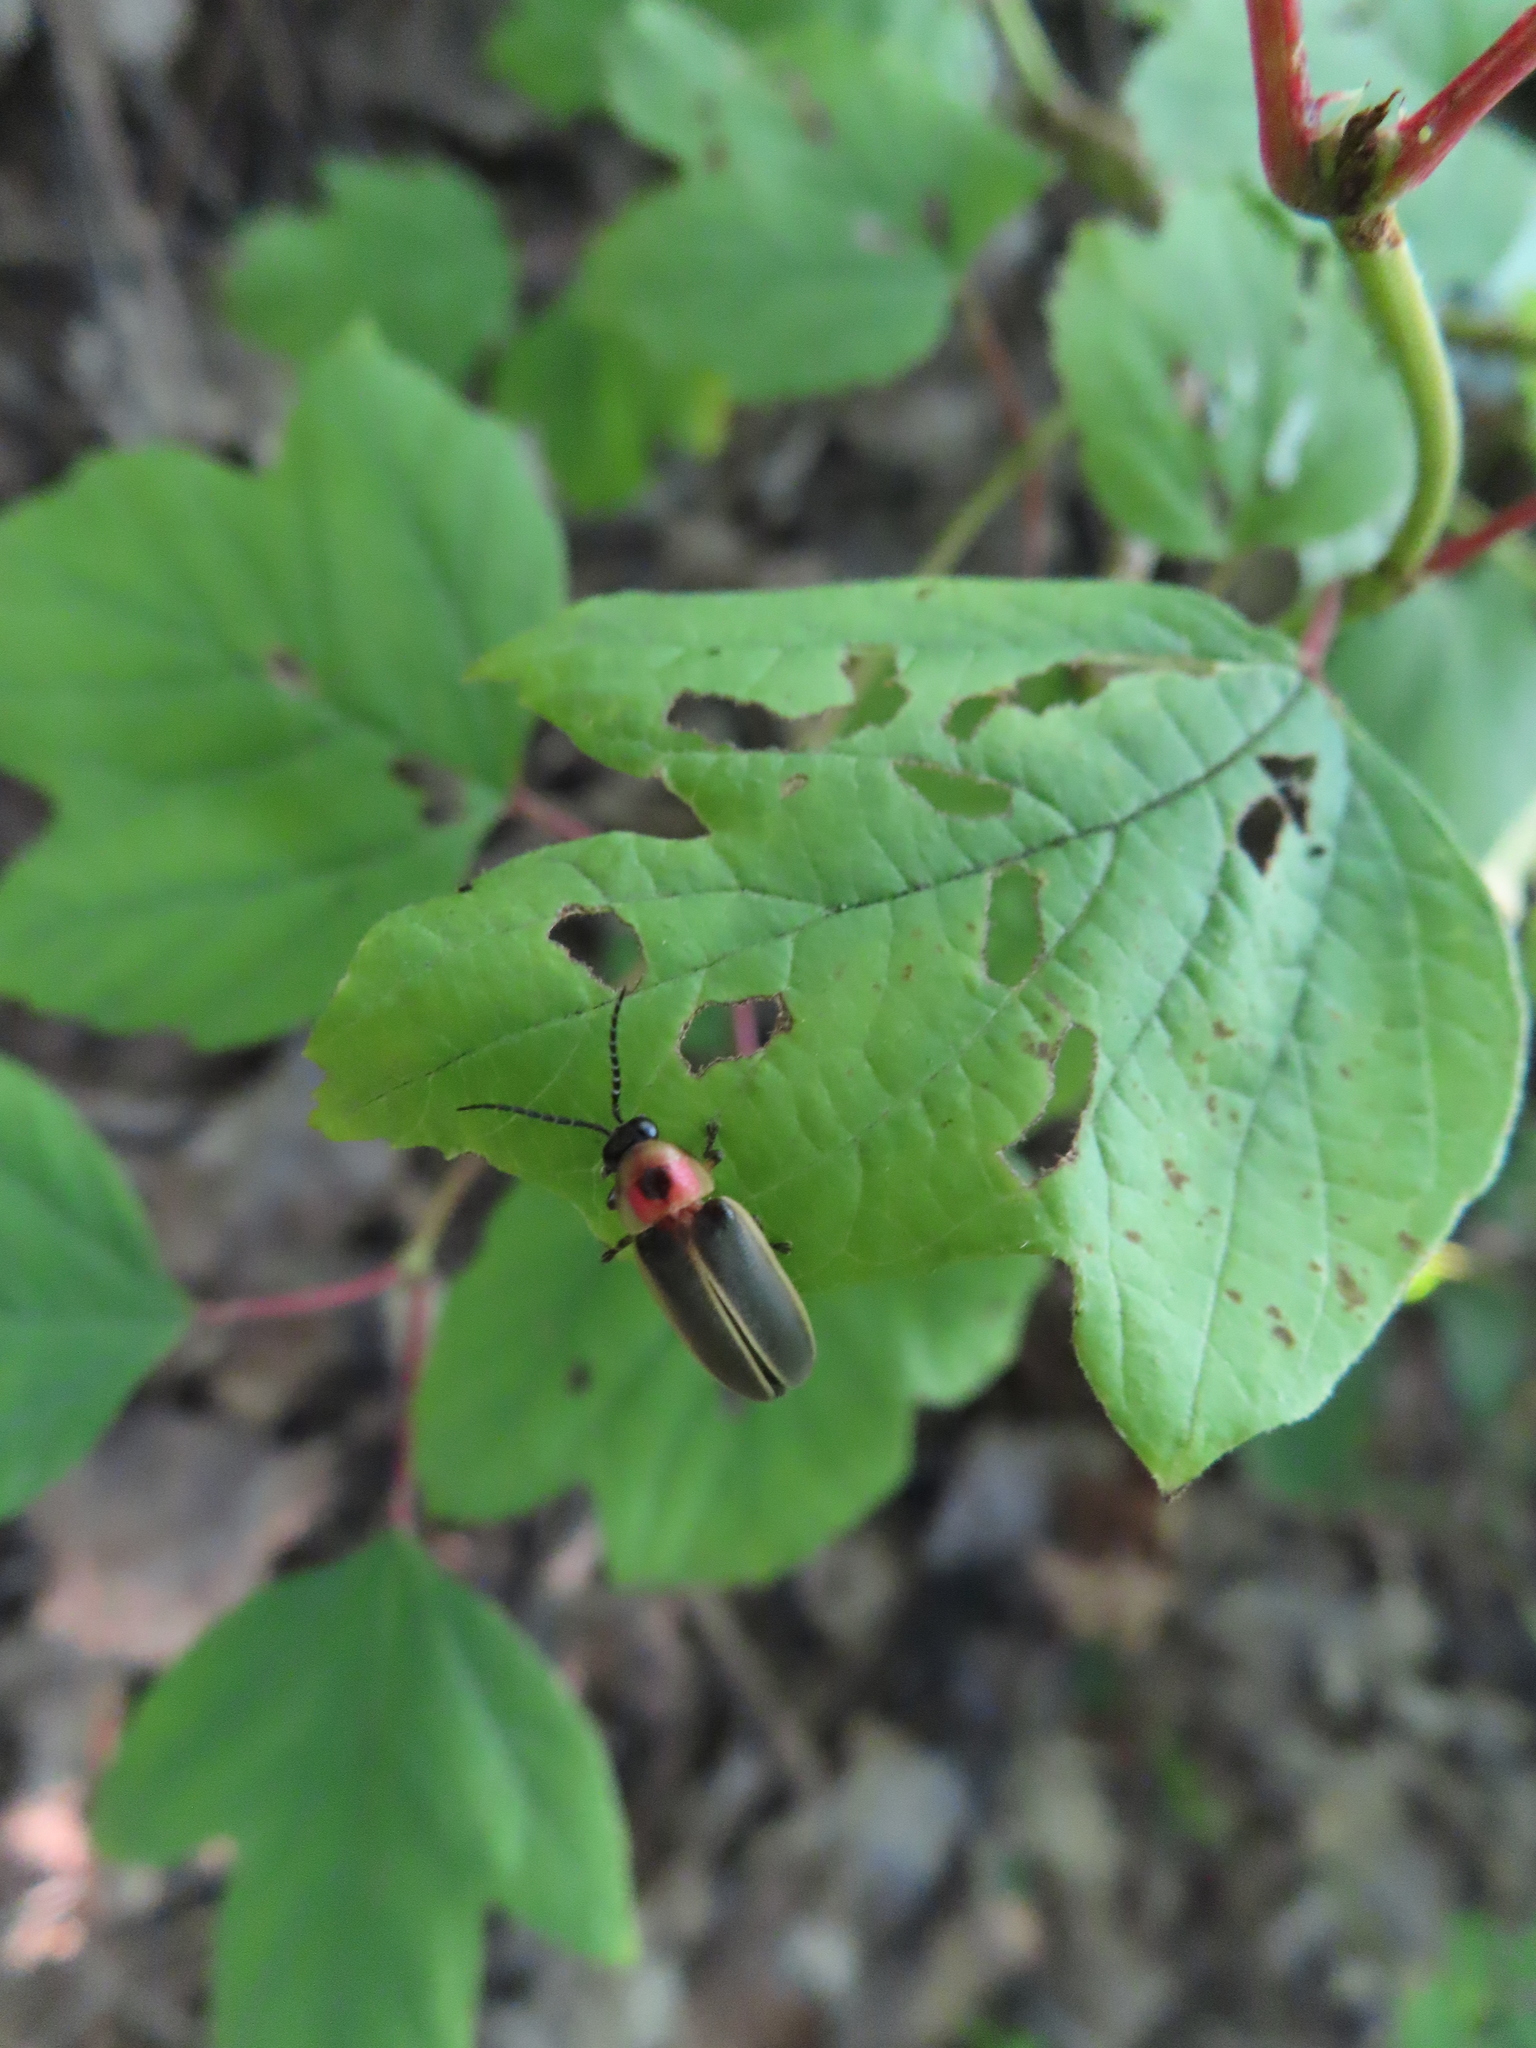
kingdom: Animalia
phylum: Arthropoda
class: Insecta
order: Coleoptera
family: Lampyridae
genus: Photinus
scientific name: Photinus pyralis
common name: Big dipper firefly
